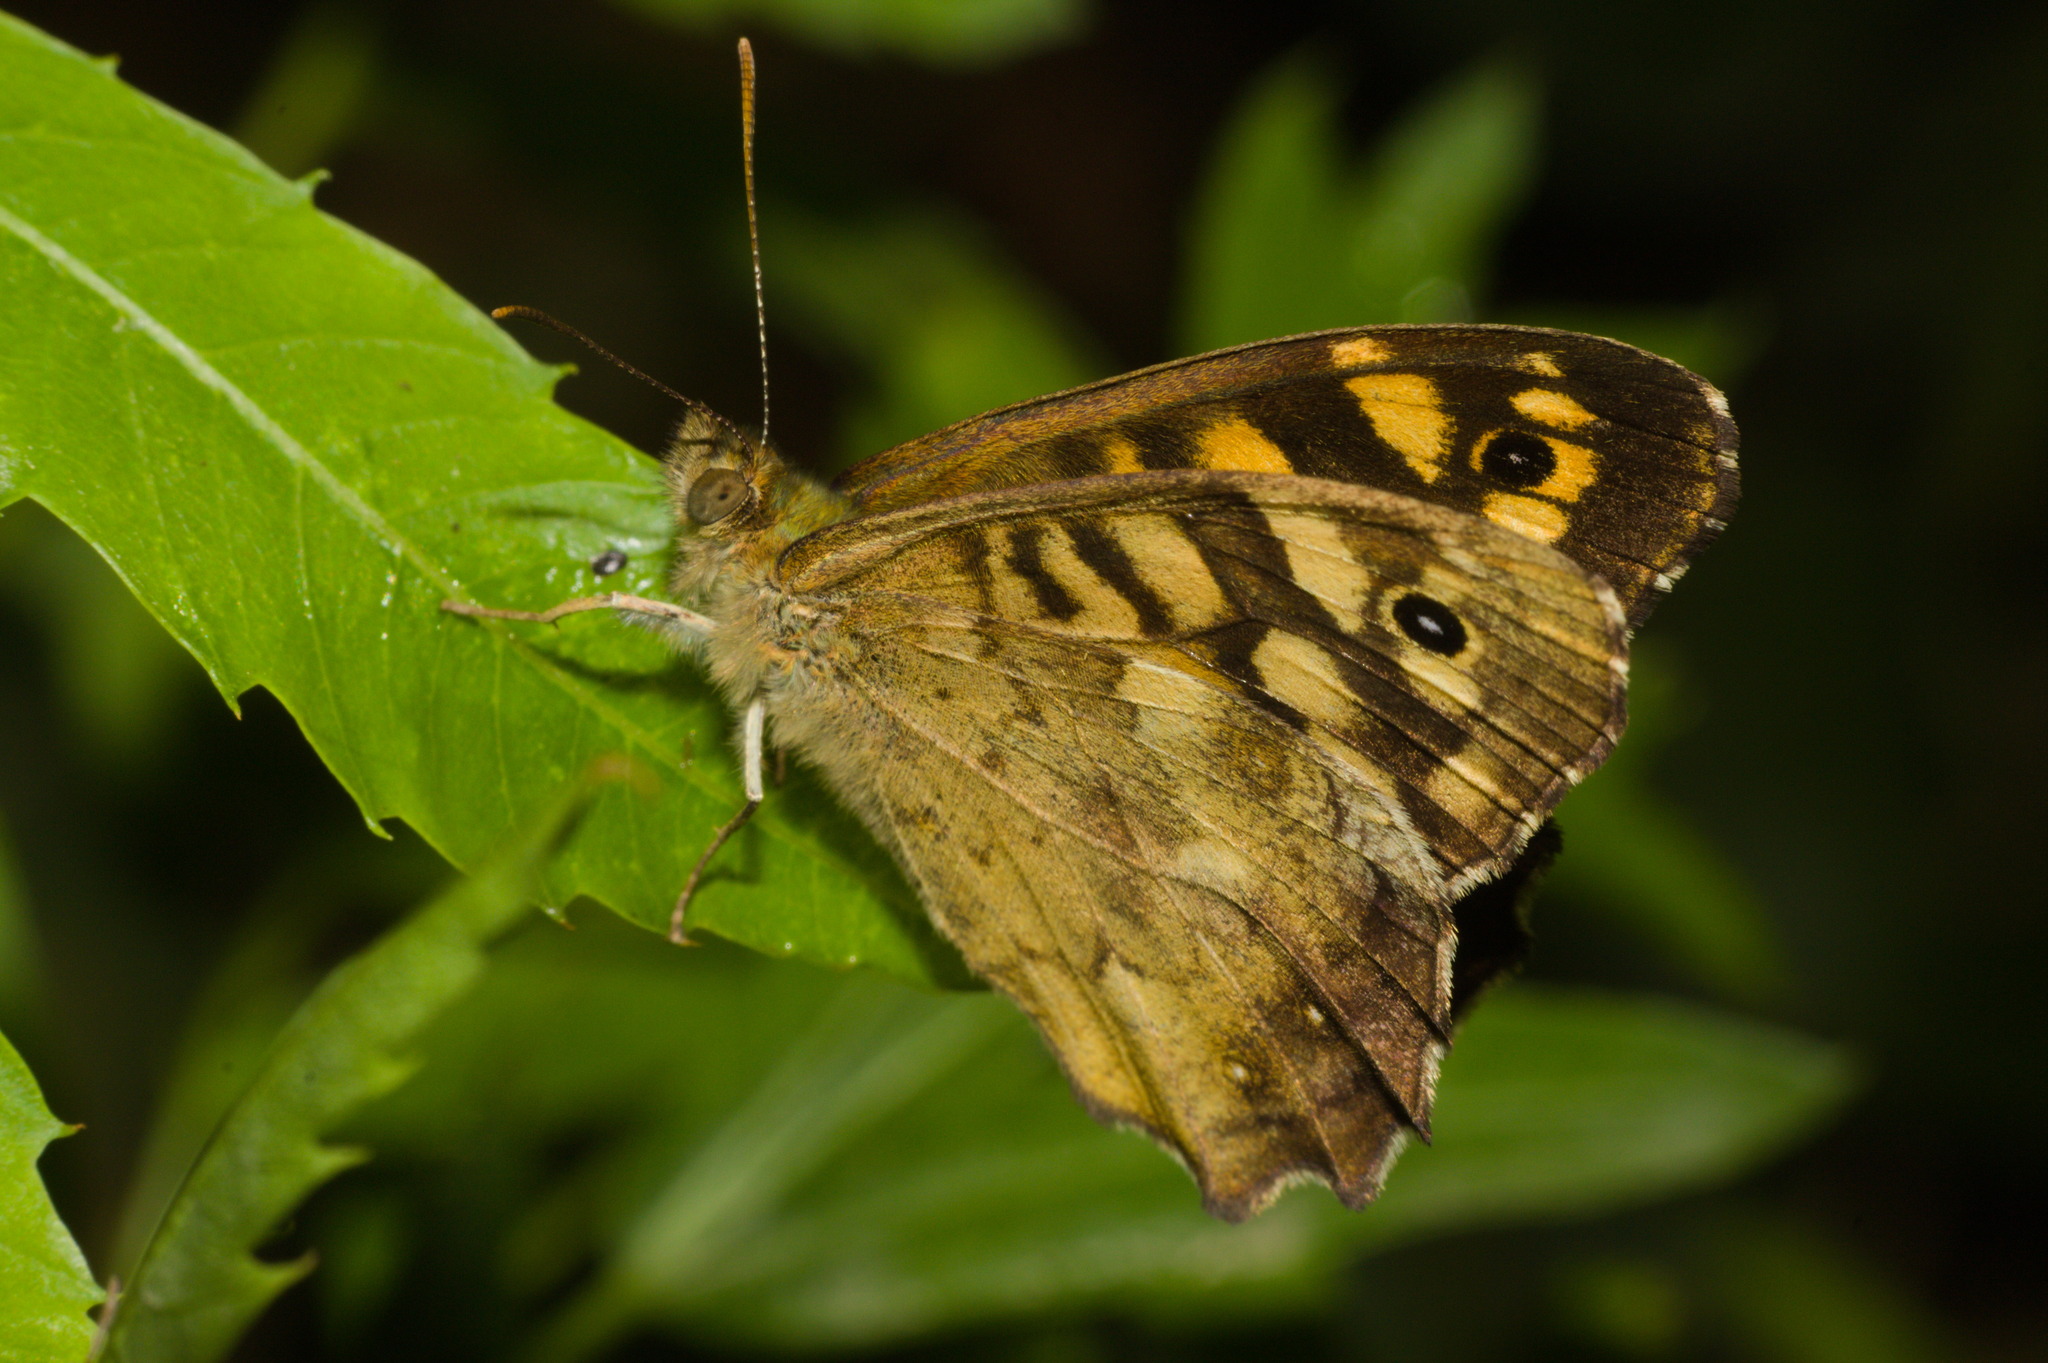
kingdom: Animalia
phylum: Arthropoda
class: Insecta
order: Lepidoptera
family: Nymphalidae
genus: Pararge
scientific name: Pararge aegeria
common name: Speckled wood
